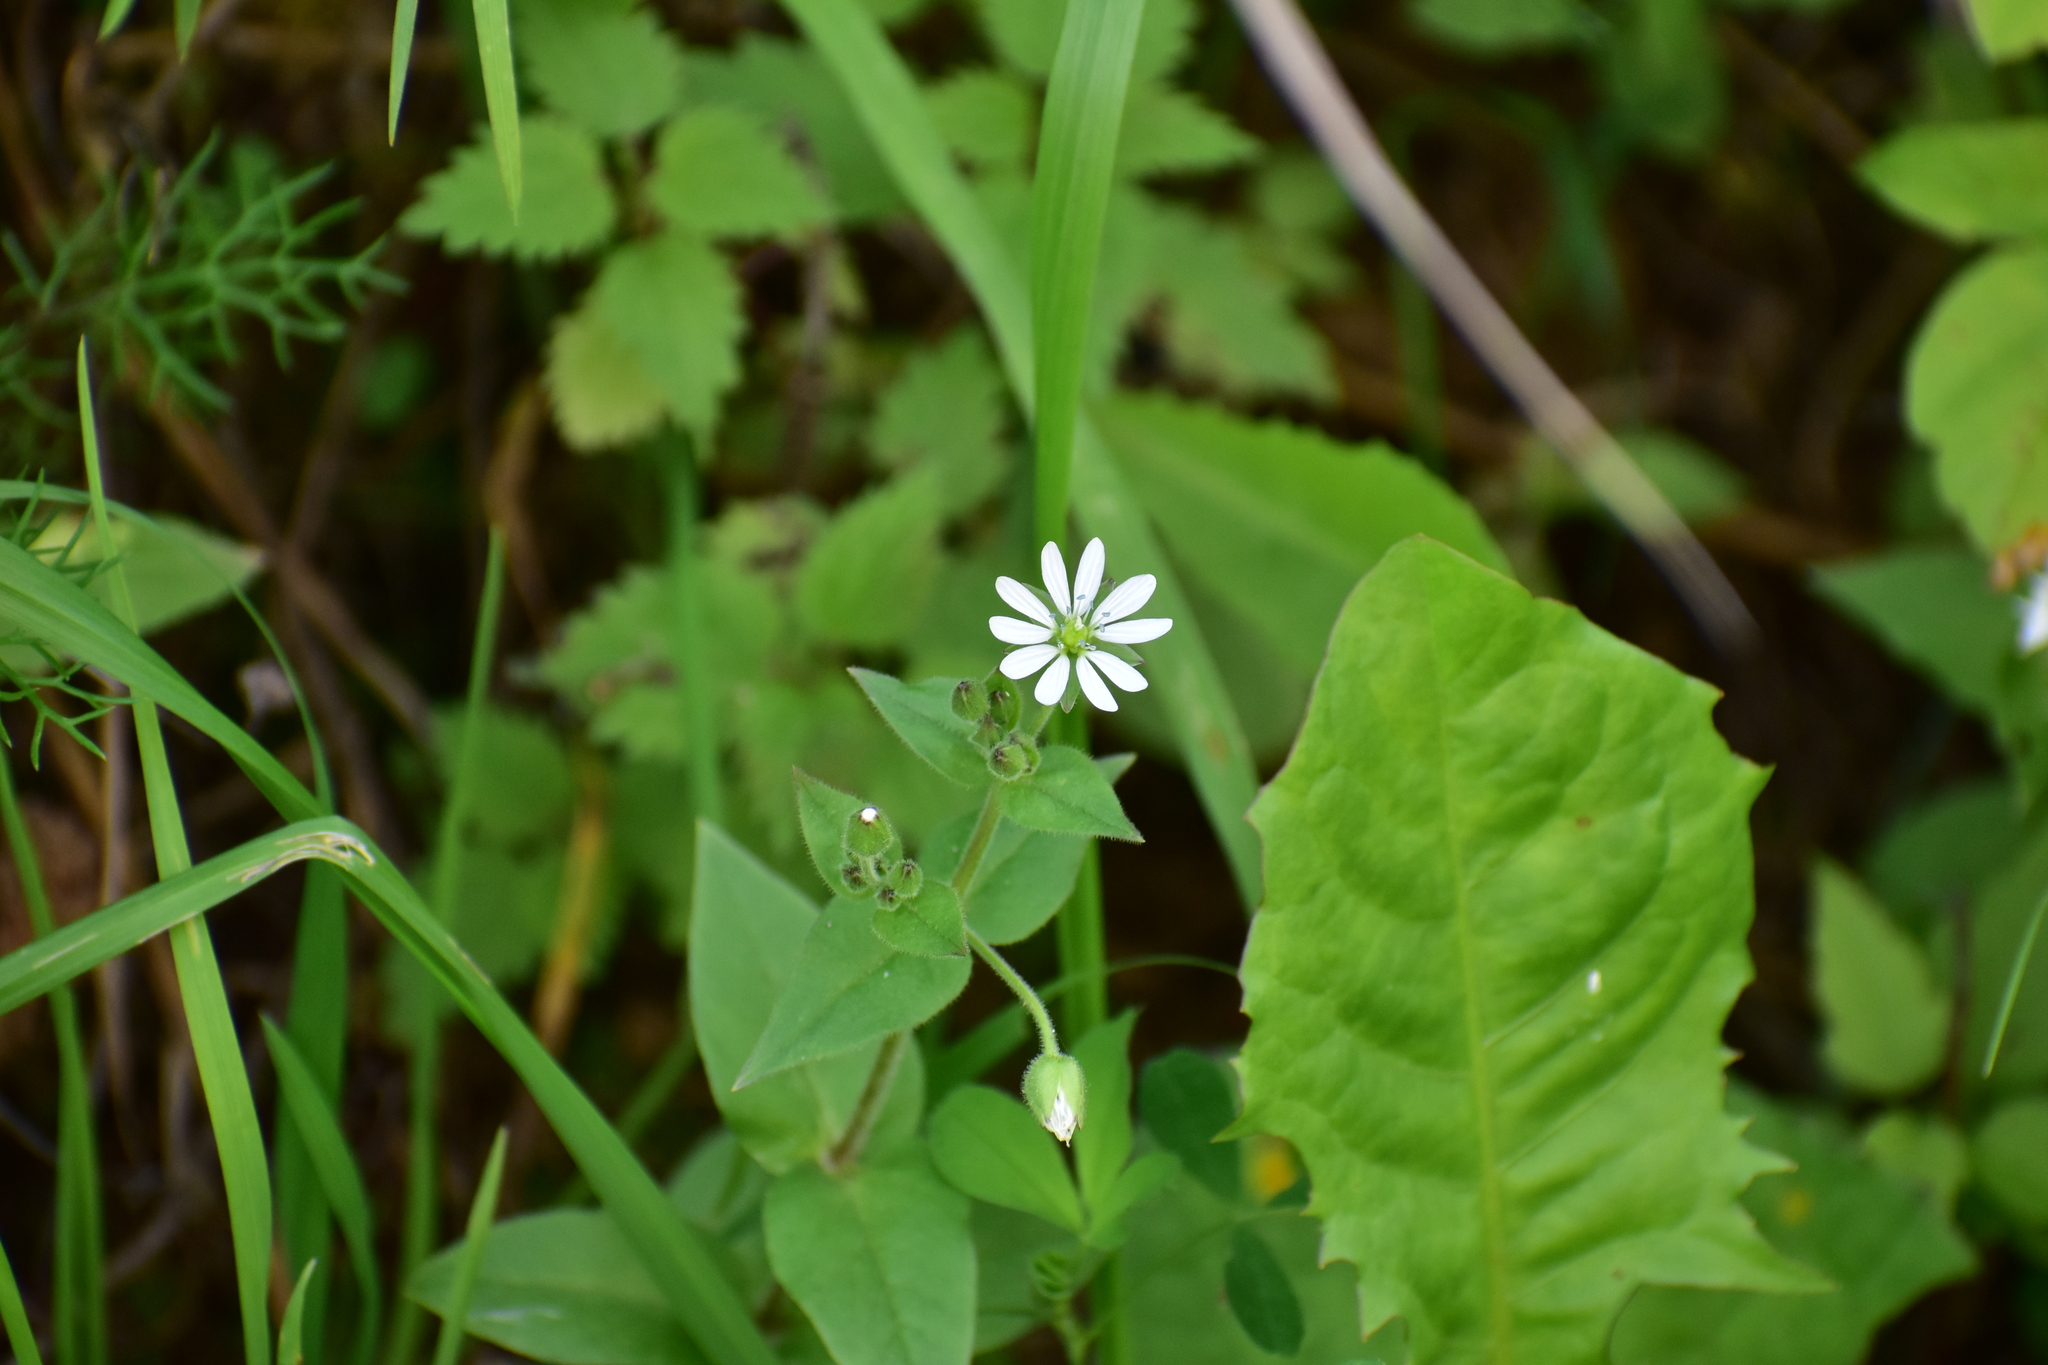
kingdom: Plantae
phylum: Tracheophyta
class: Magnoliopsida
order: Caryophyllales
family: Caryophyllaceae
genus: Stellaria
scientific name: Stellaria aquatica
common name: Water chickweed
